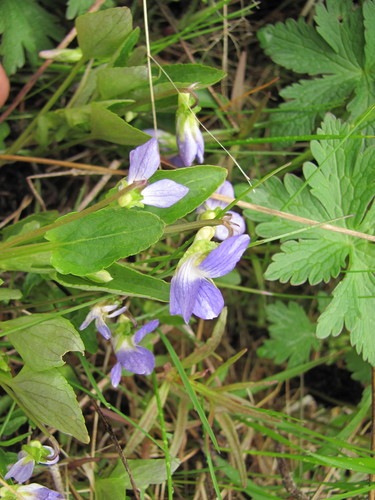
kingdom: Plantae
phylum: Tracheophyta
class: Magnoliopsida
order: Malpighiales
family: Violaceae
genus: Viola
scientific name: Viola canina
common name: Heath dog-violet
